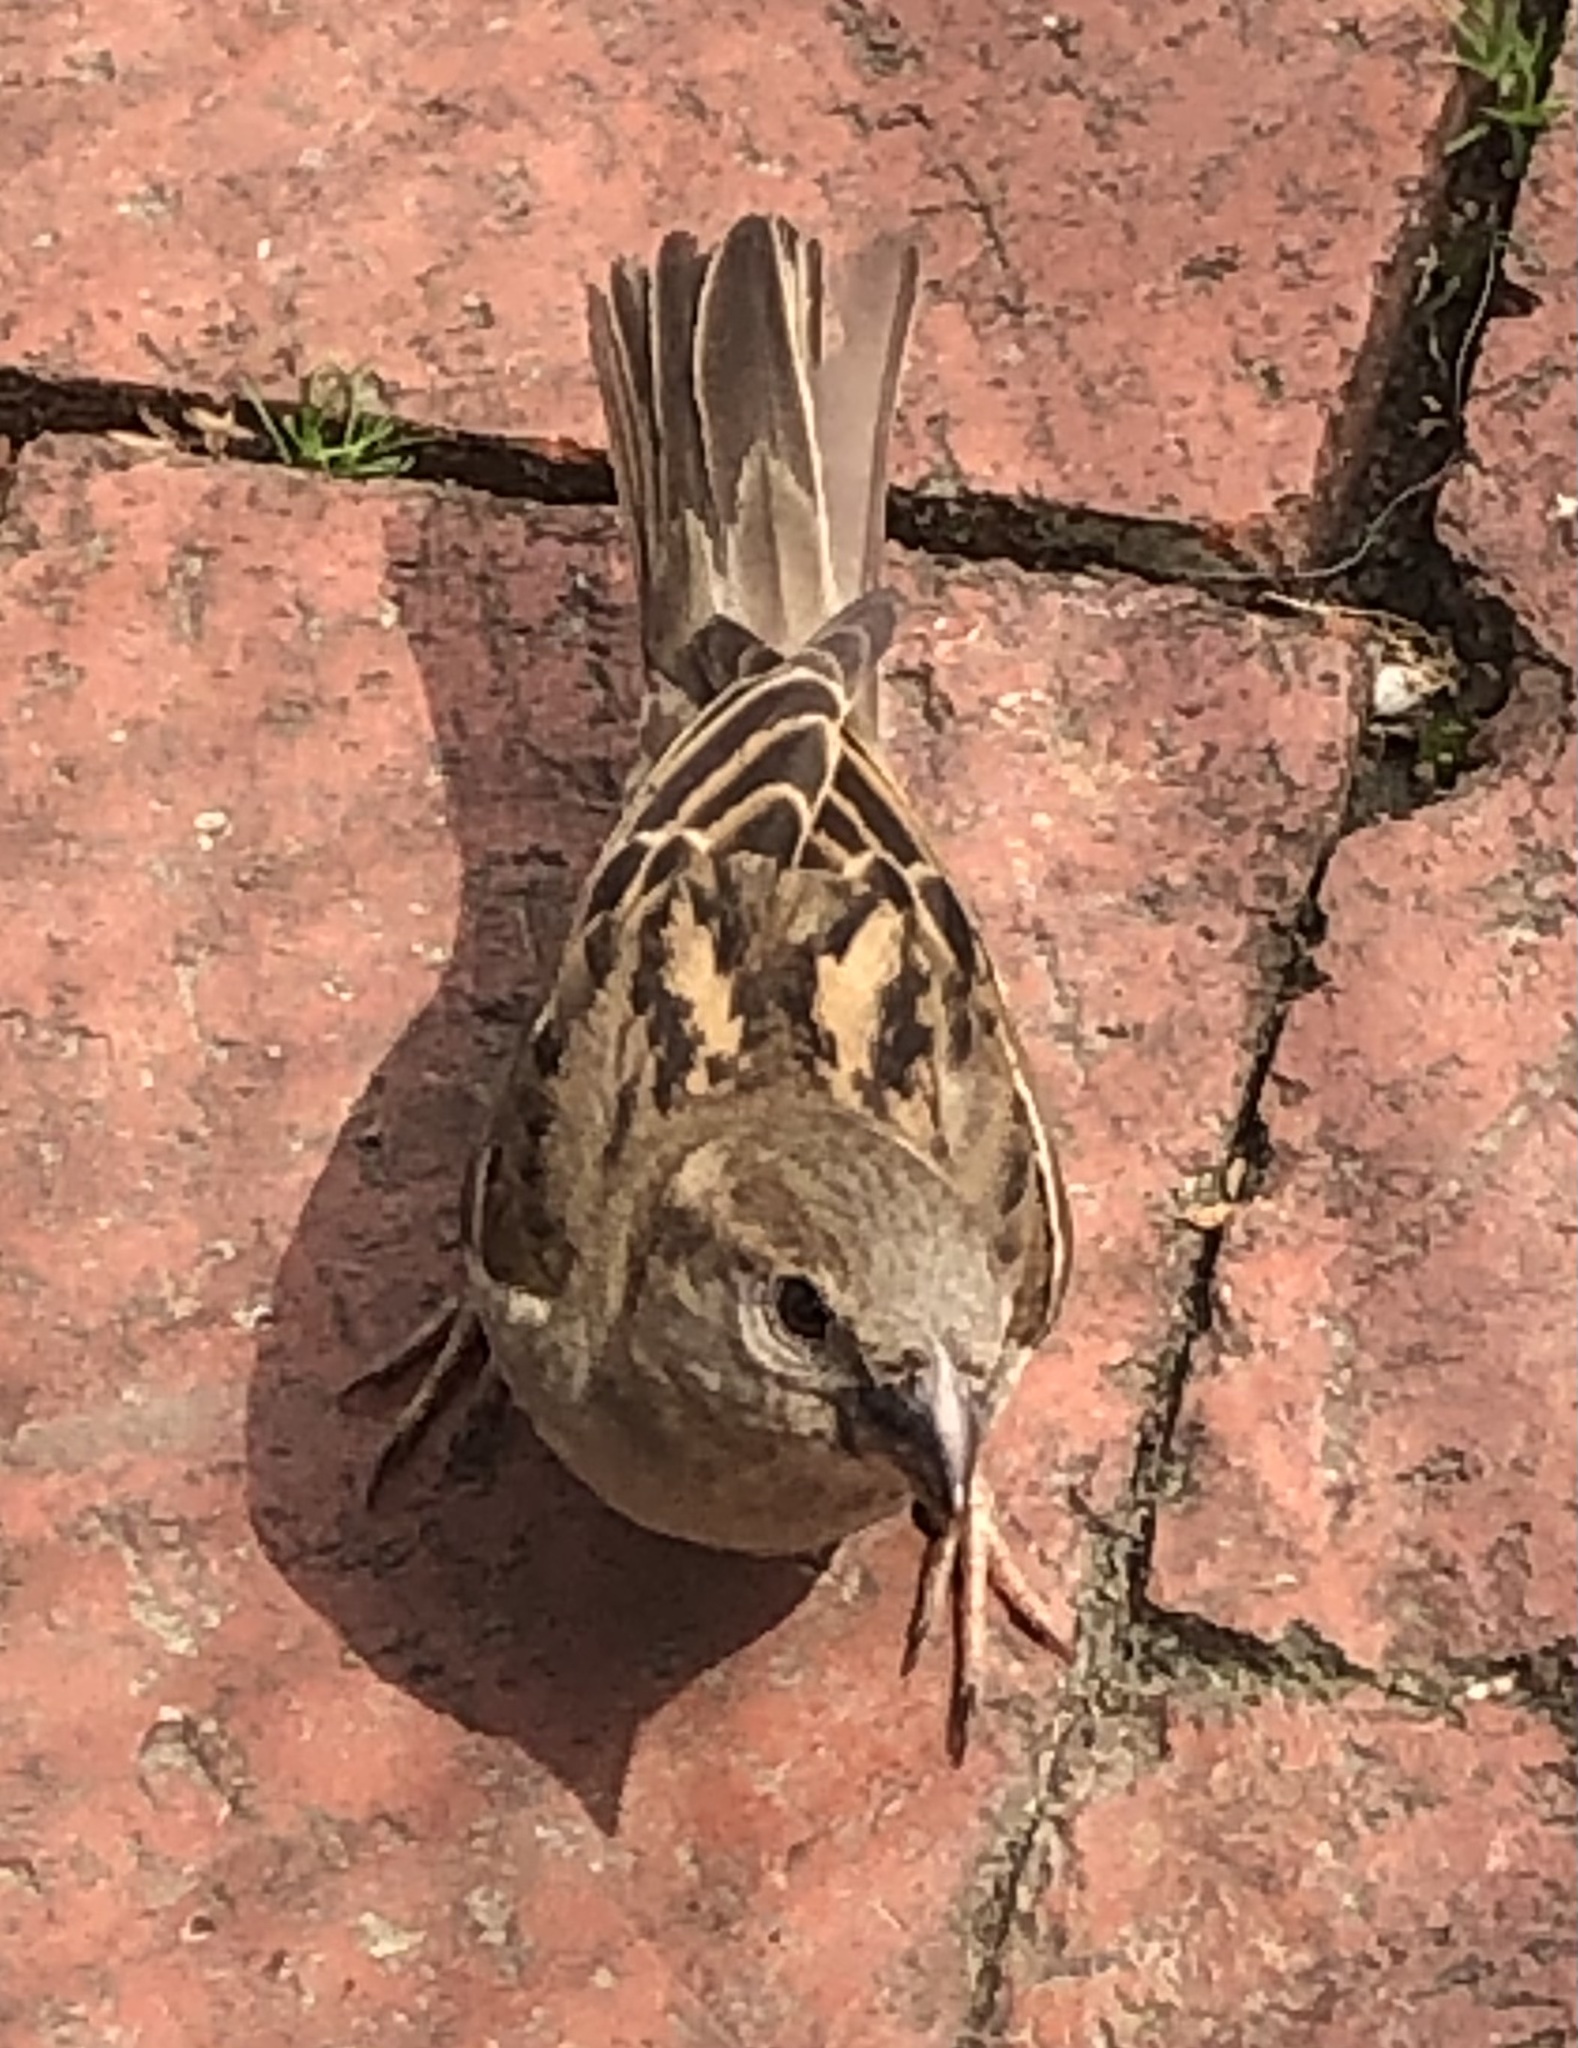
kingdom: Animalia
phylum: Chordata
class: Aves
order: Passeriformes
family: Passeridae
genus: Passer
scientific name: Passer domesticus
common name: House sparrow
